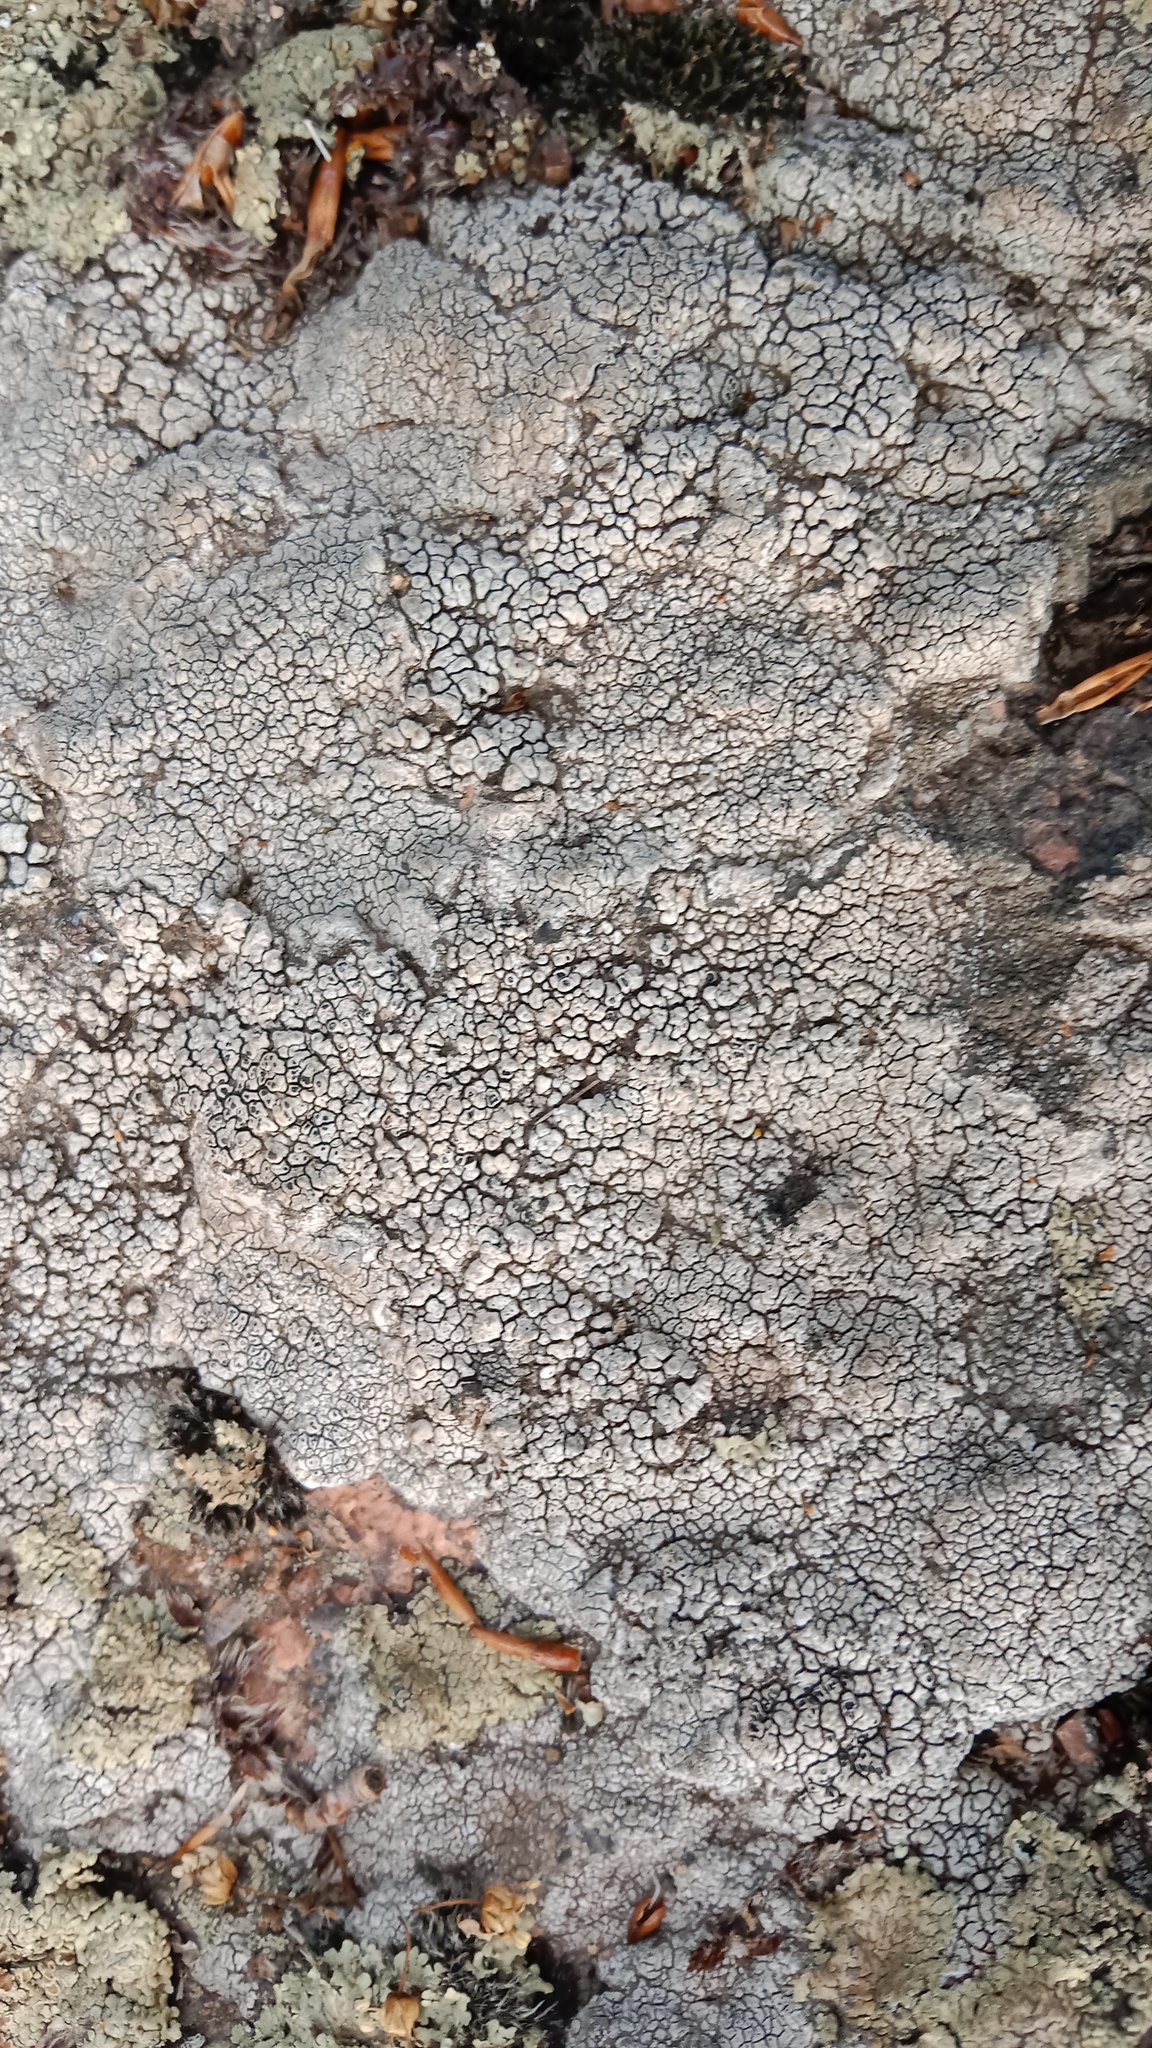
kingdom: Fungi
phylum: Ascomycota
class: Lecanoromycetes
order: Pertusariales
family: Megasporaceae
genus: Aspiciliella
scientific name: Aspiciliella intermutans
